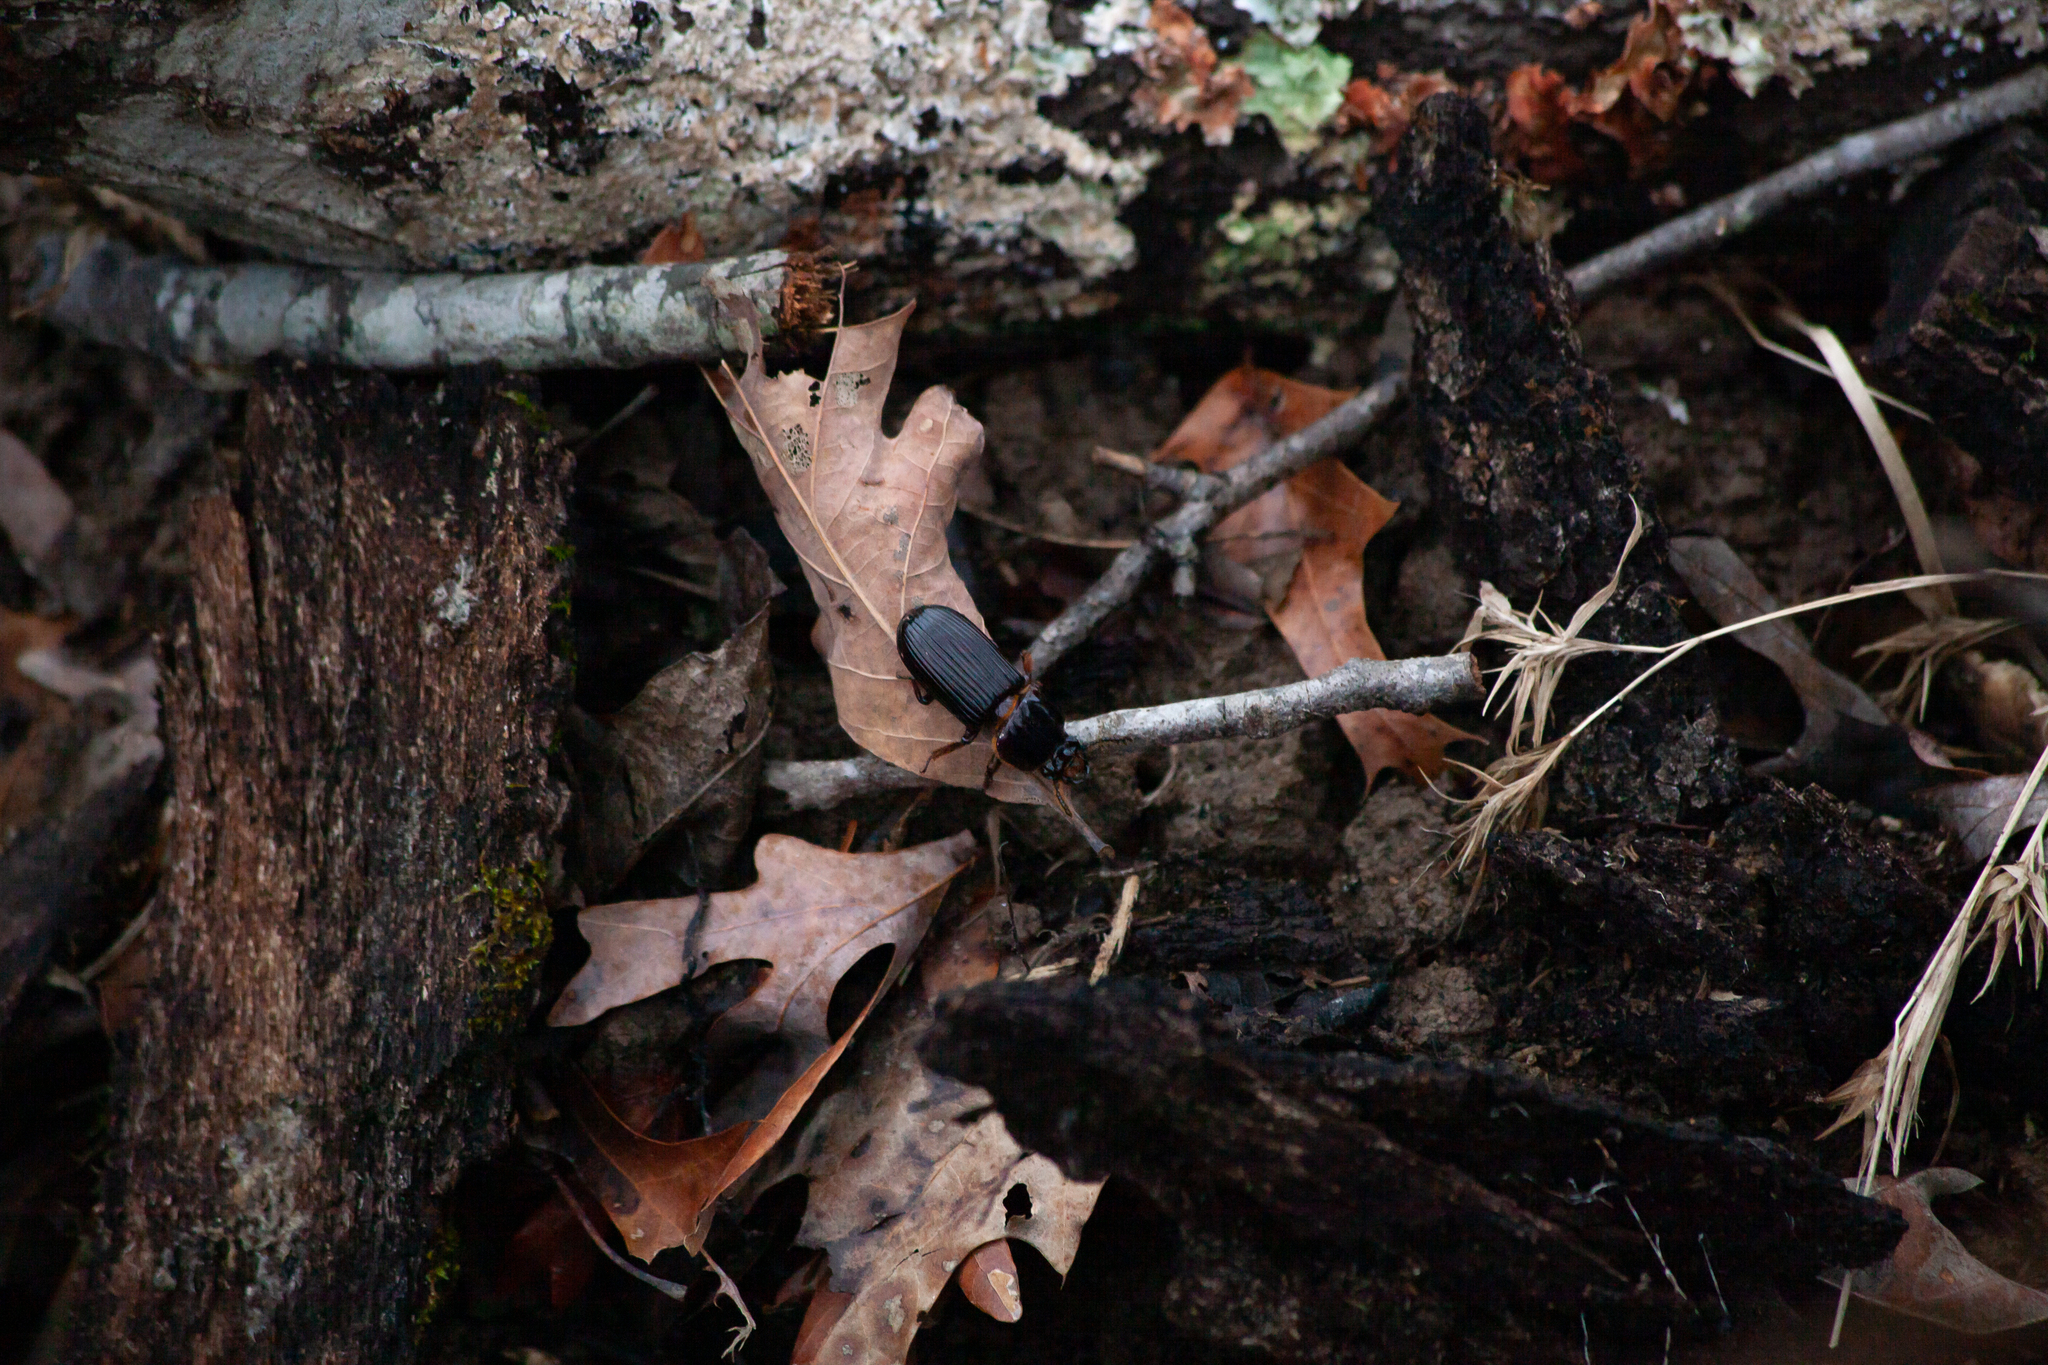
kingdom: Animalia
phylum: Arthropoda
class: Insecta
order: Coleoptera
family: Passalidae
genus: Odontotaenius
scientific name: Odontotaenius disjunctus
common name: Patent leather beetle
